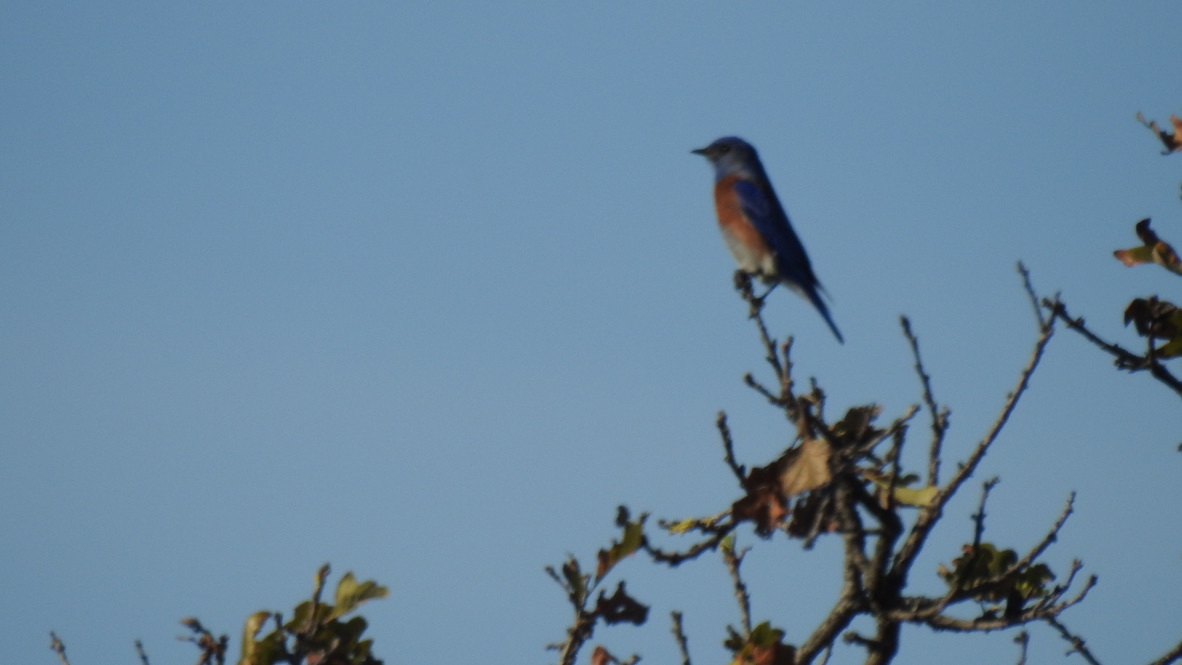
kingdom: Animalia
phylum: Chordata
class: Aves
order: Passeriformes
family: Turdidae
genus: Sialia
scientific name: Sialia mexicana
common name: Western bluebird
